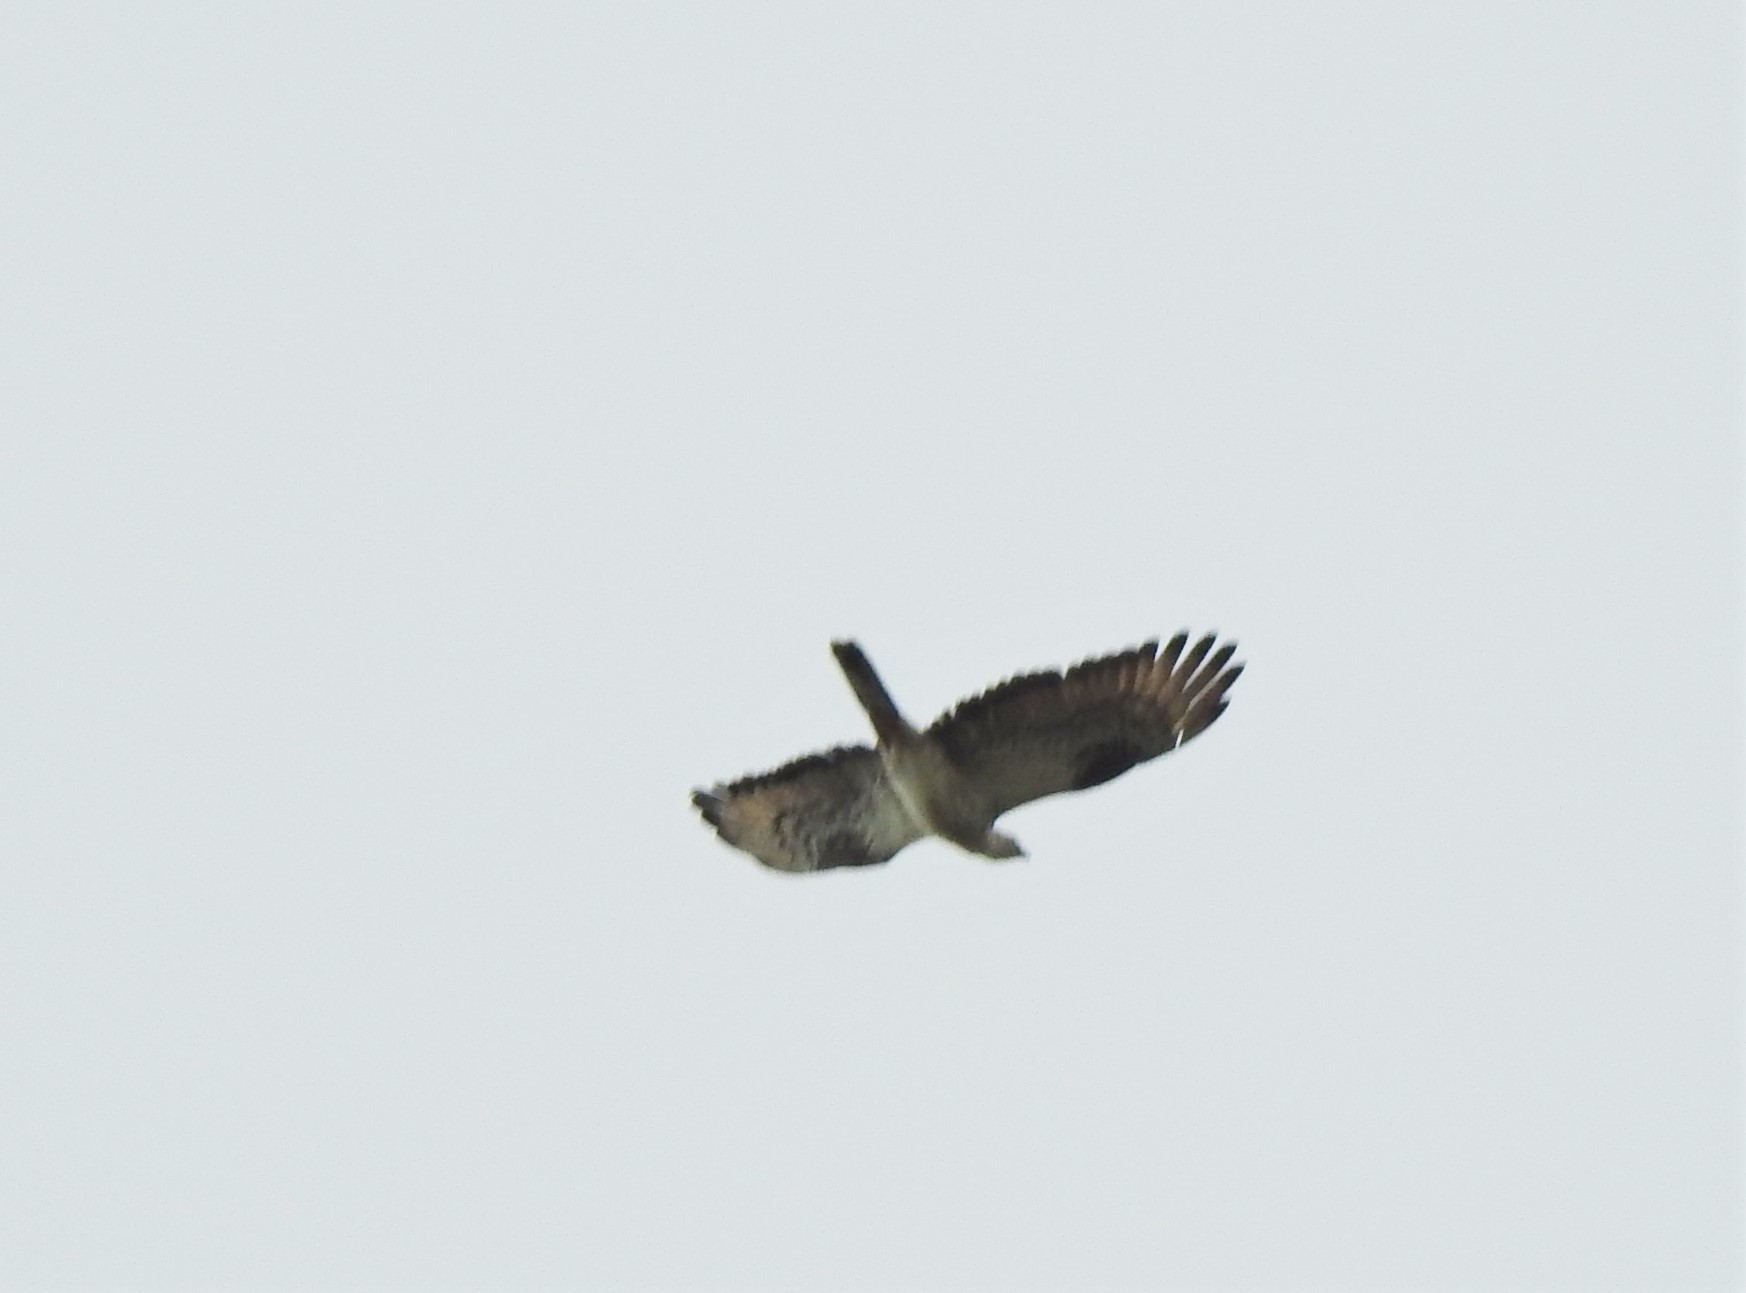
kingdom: Animalia
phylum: Chordata
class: Aves
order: Accipitriformes
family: Accipitridae
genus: Pernis
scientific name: Pernis apivorus
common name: European honey buzzard
